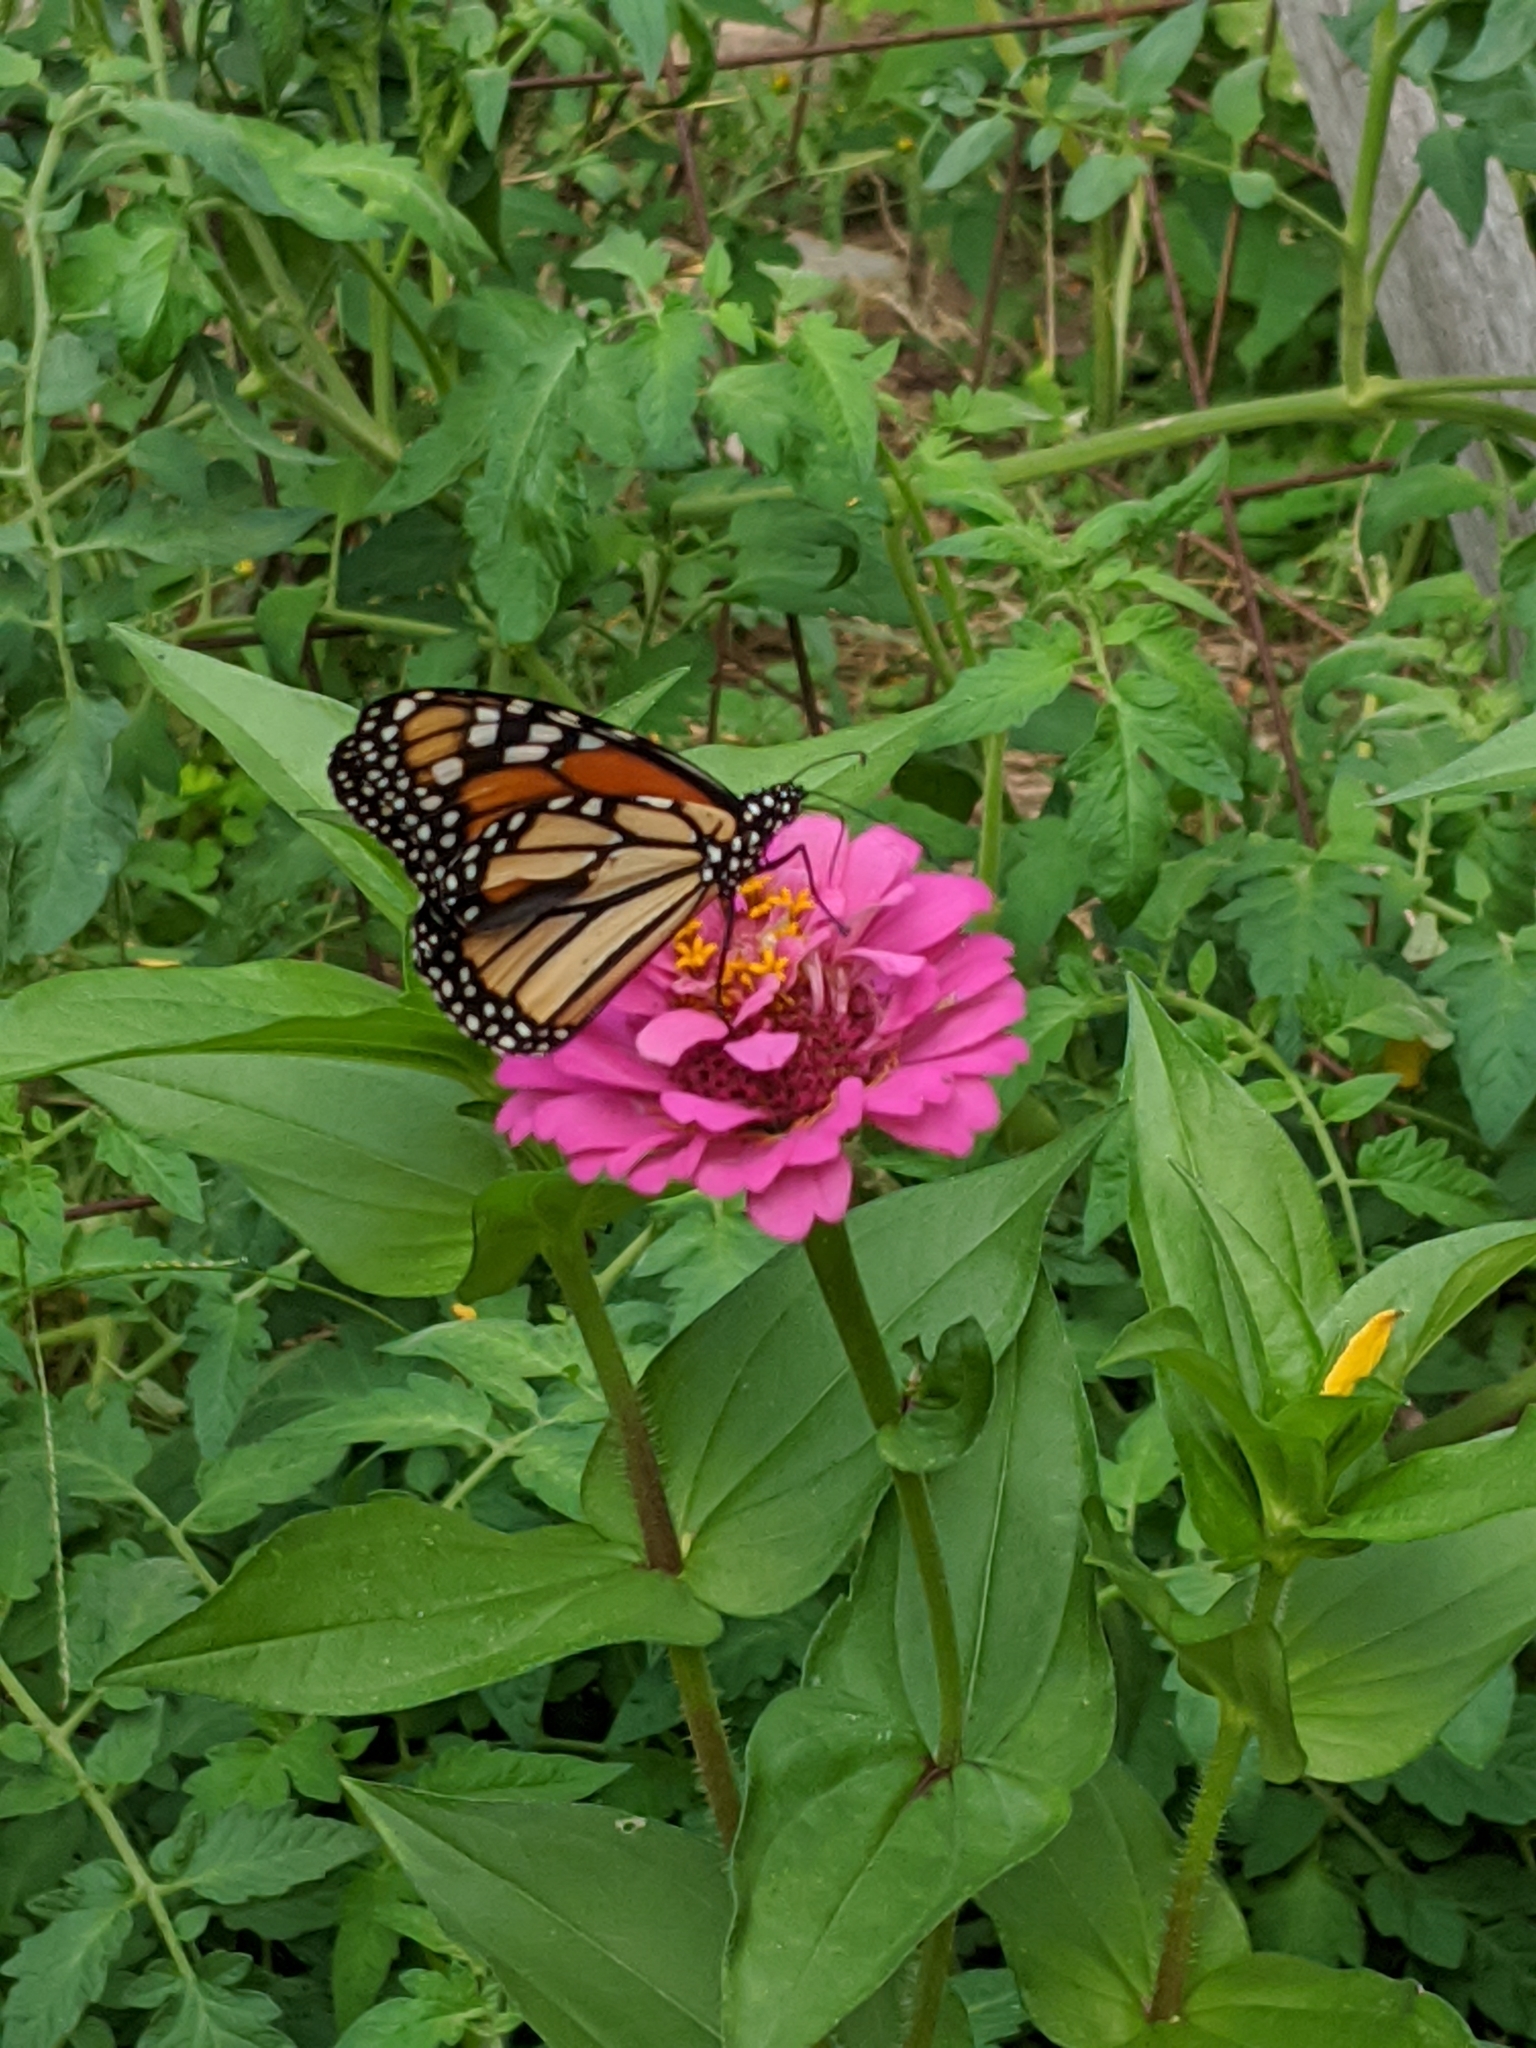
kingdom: Animalia
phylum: Arthropoda
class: Insecta
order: Lepidoptera
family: Nymphalidae
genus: Danaus
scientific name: Danaus plexippus
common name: Monarch
